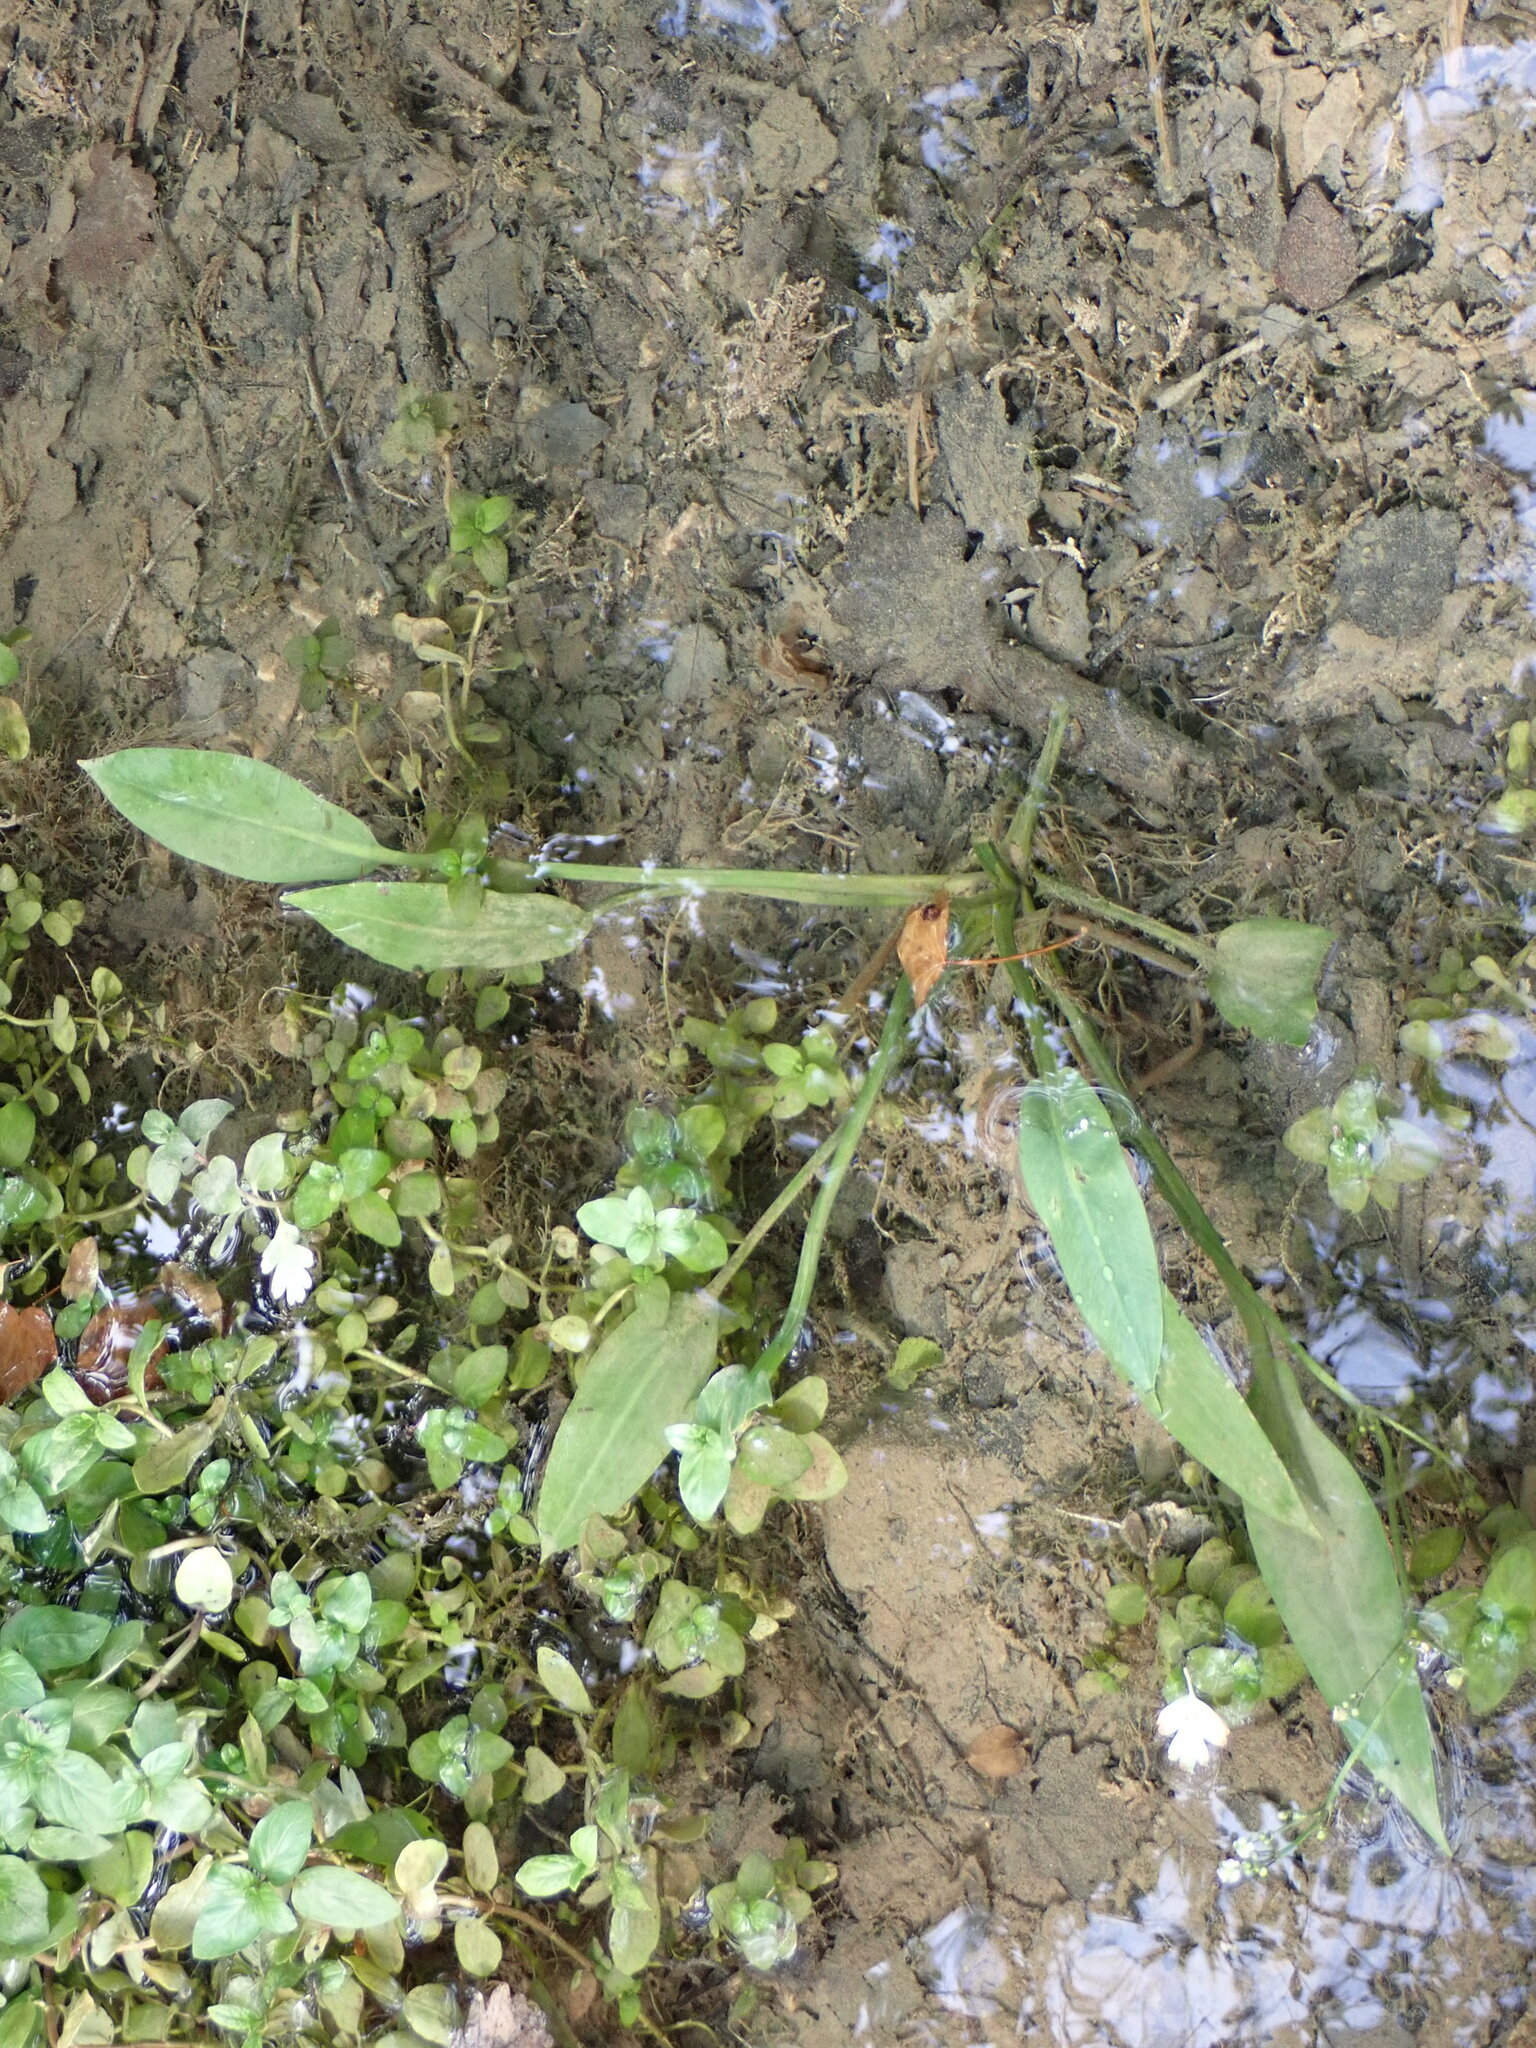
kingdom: Plantae
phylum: Tracheophyta
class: Liliopsida
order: Alismatales
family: Alismataceae
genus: Alisma
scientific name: Alisma lanceolatum
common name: Narrow-leaved water-plantain
